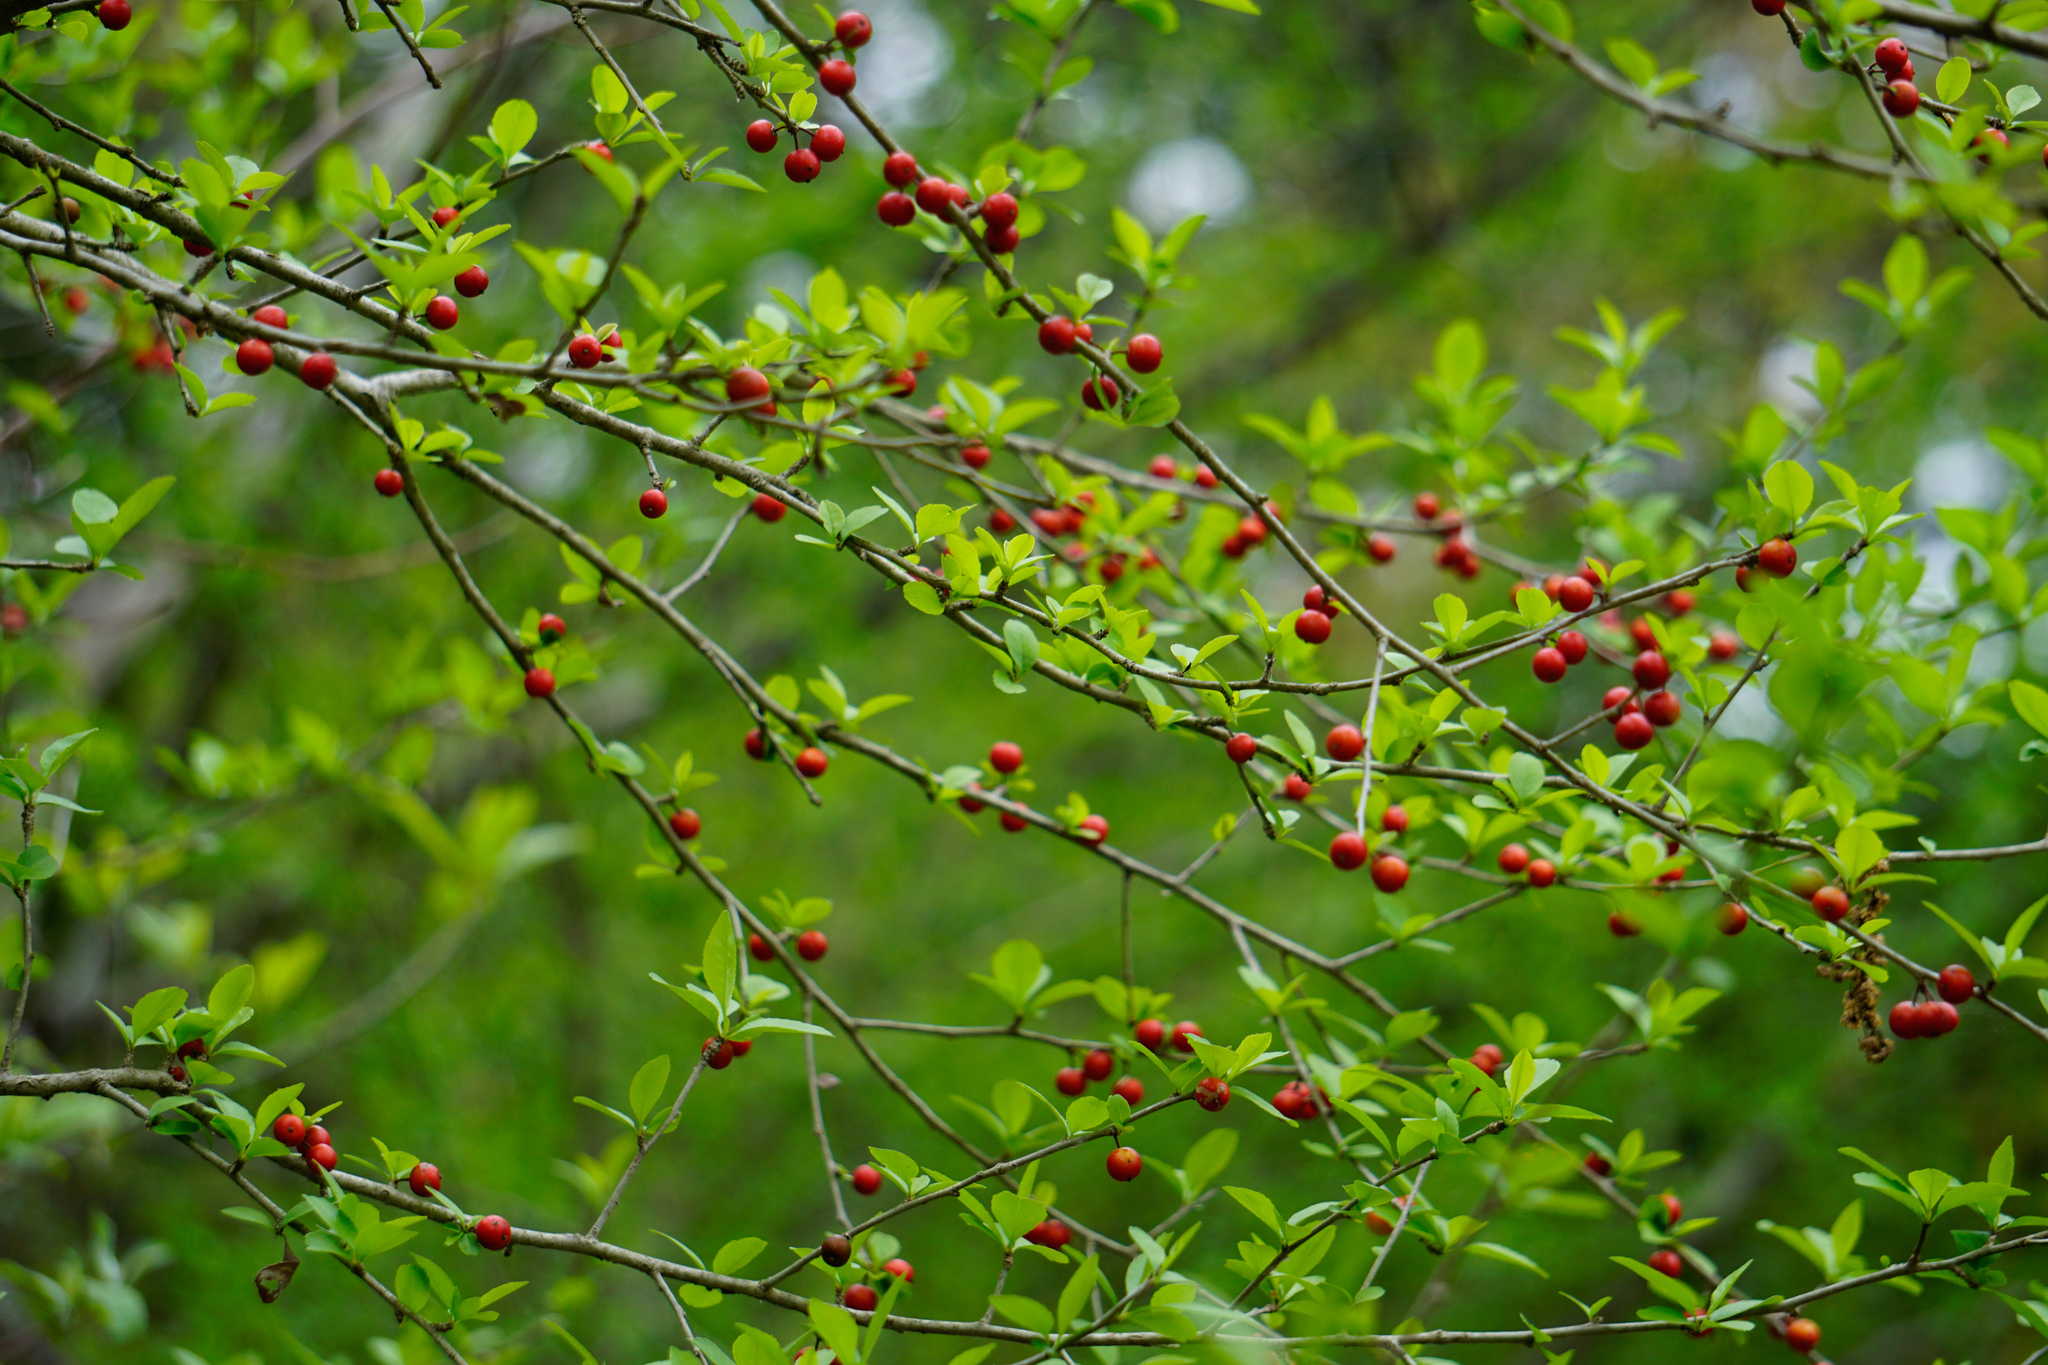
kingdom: Plantae
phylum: Tracheophyta
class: Magnoliopsida
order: Aquifoliales
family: Aquifoliaceae
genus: Ilex
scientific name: Ilex decidua
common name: Possum-haw
